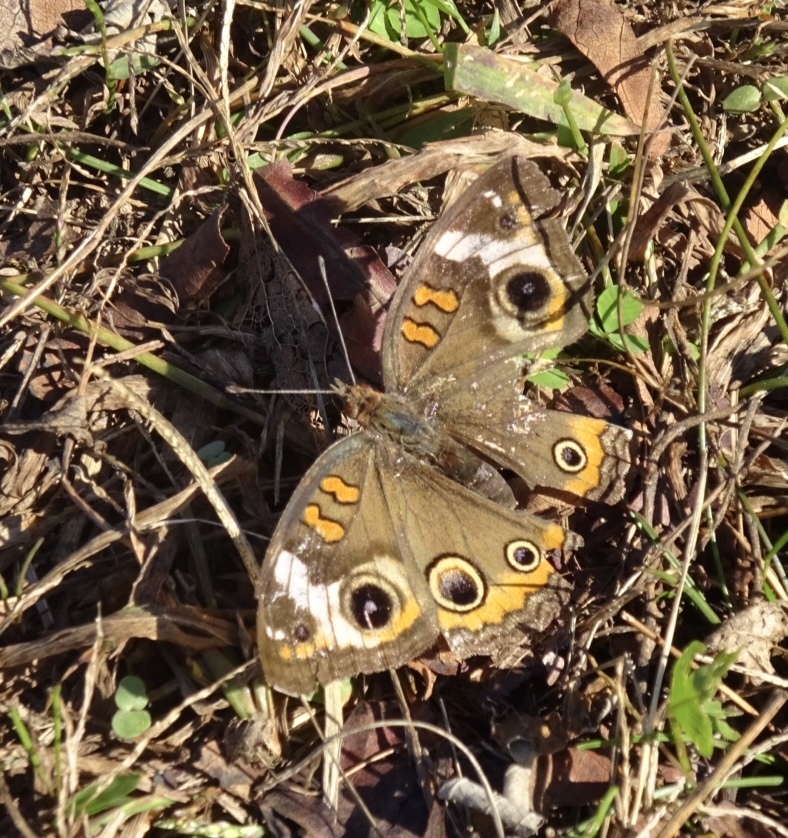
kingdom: Animalia
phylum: Arthropoda
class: Insecta
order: Lepidoptera
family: Nymphalidae
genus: Junonia
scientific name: Junonia coenia
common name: Common buckeye
